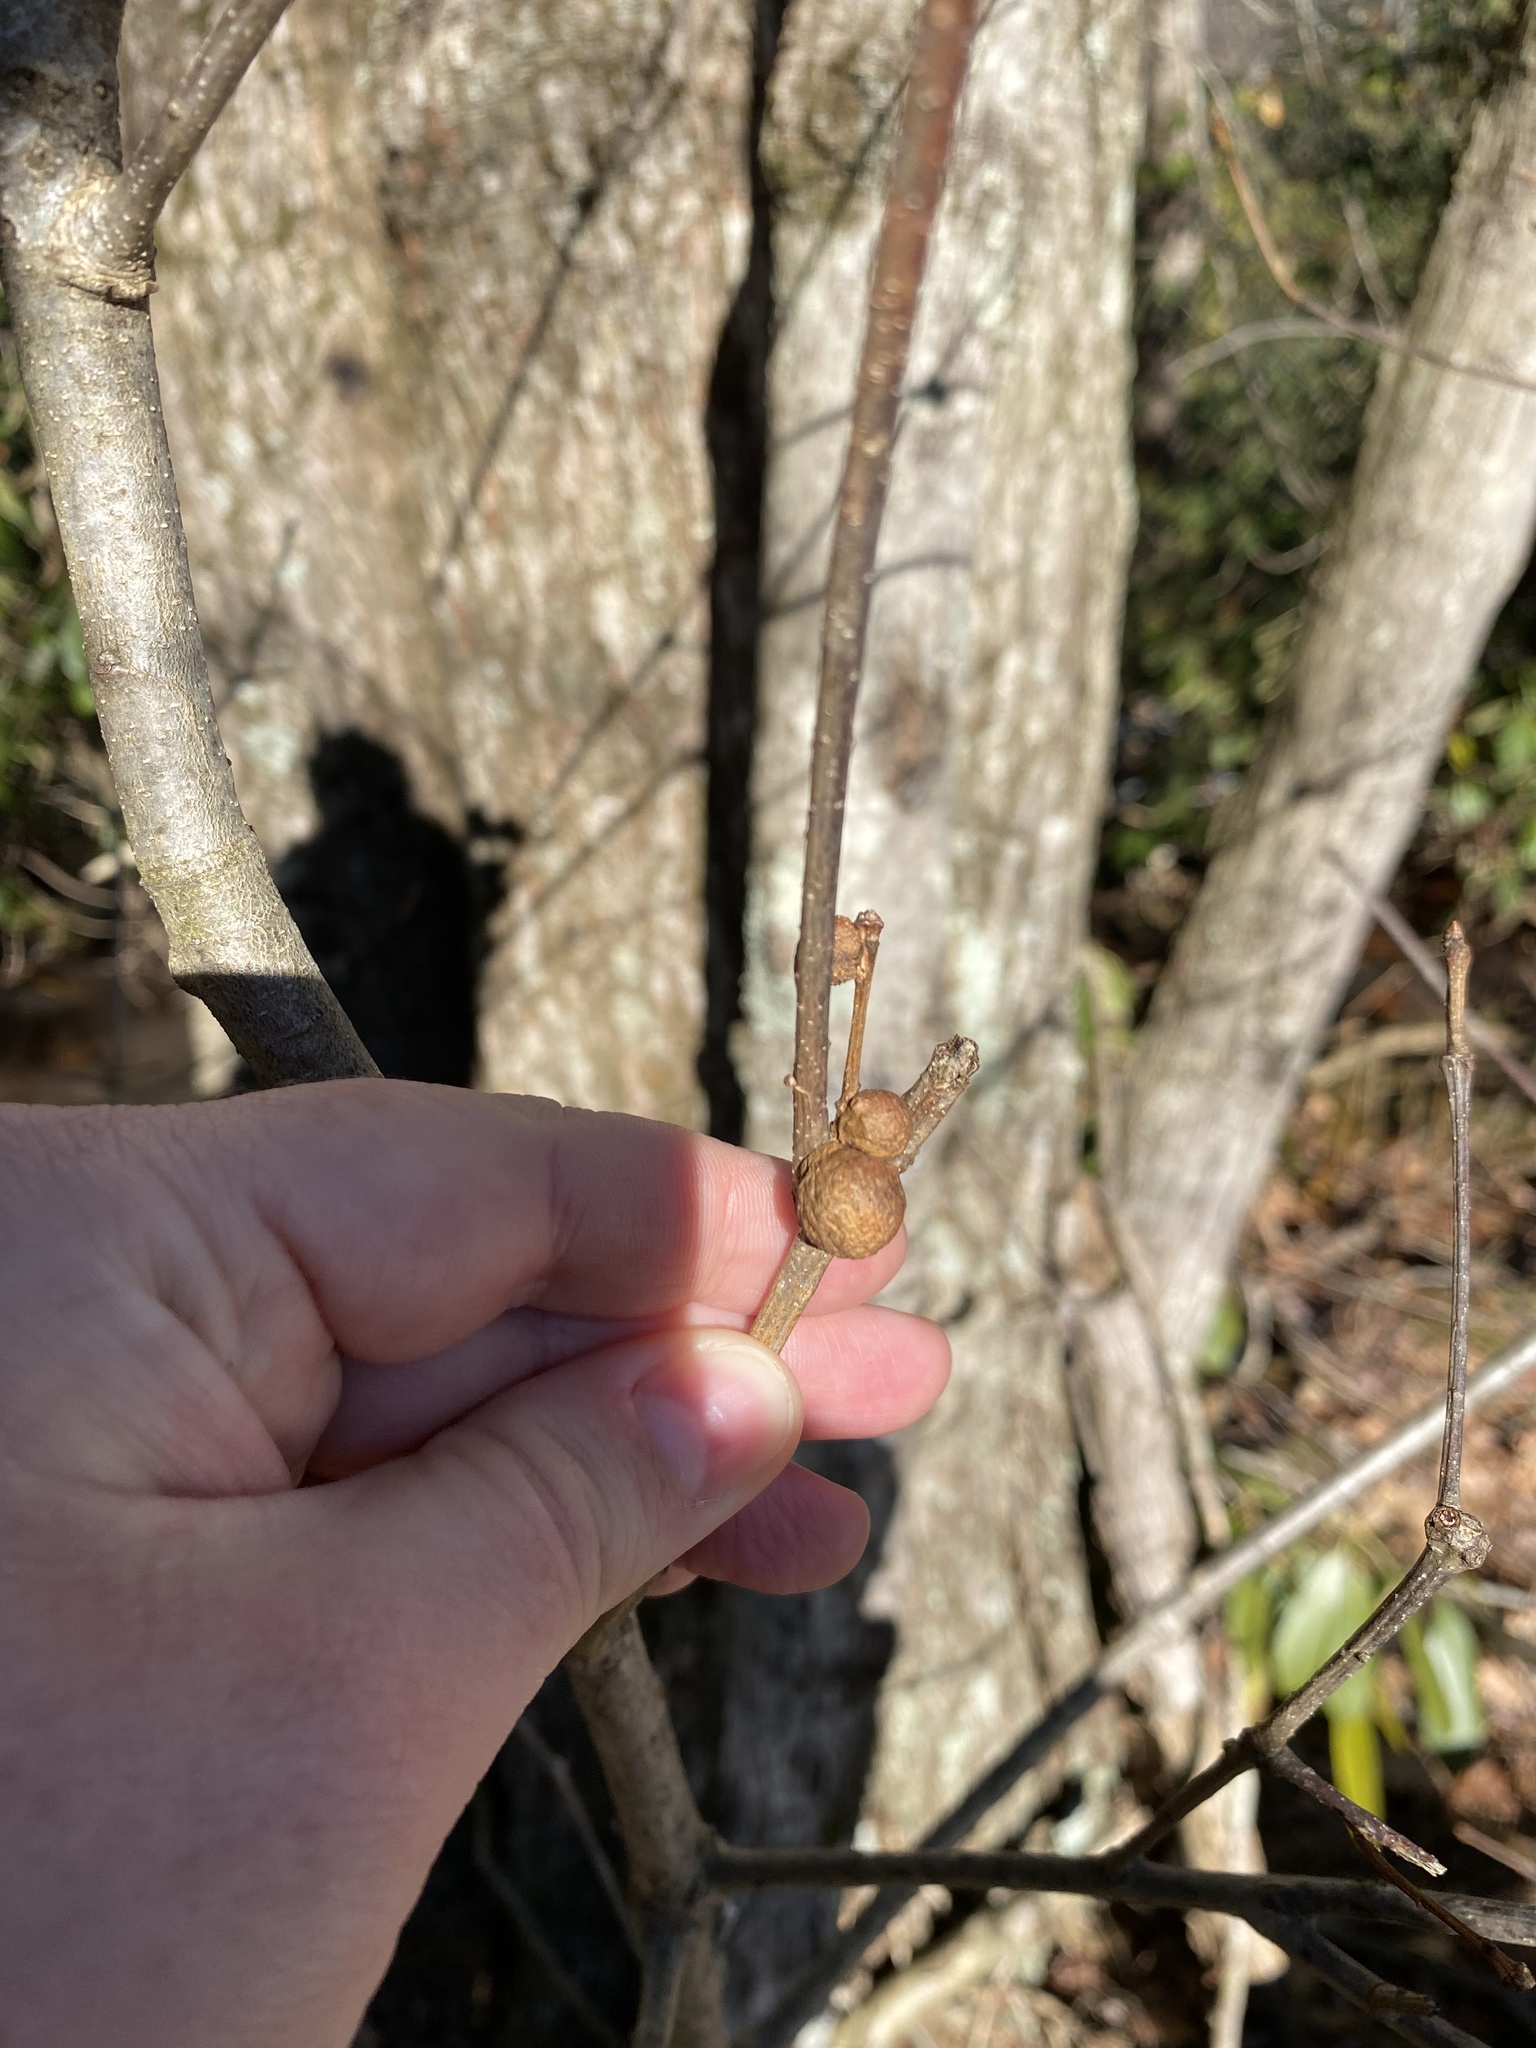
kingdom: Animalia
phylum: Arthropoda
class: Insecta
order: Hymenoptera
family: Cynipidae
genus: Disholcaspis
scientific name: Disholcaspis quercusglobulus
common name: Round bullet gall wasp
